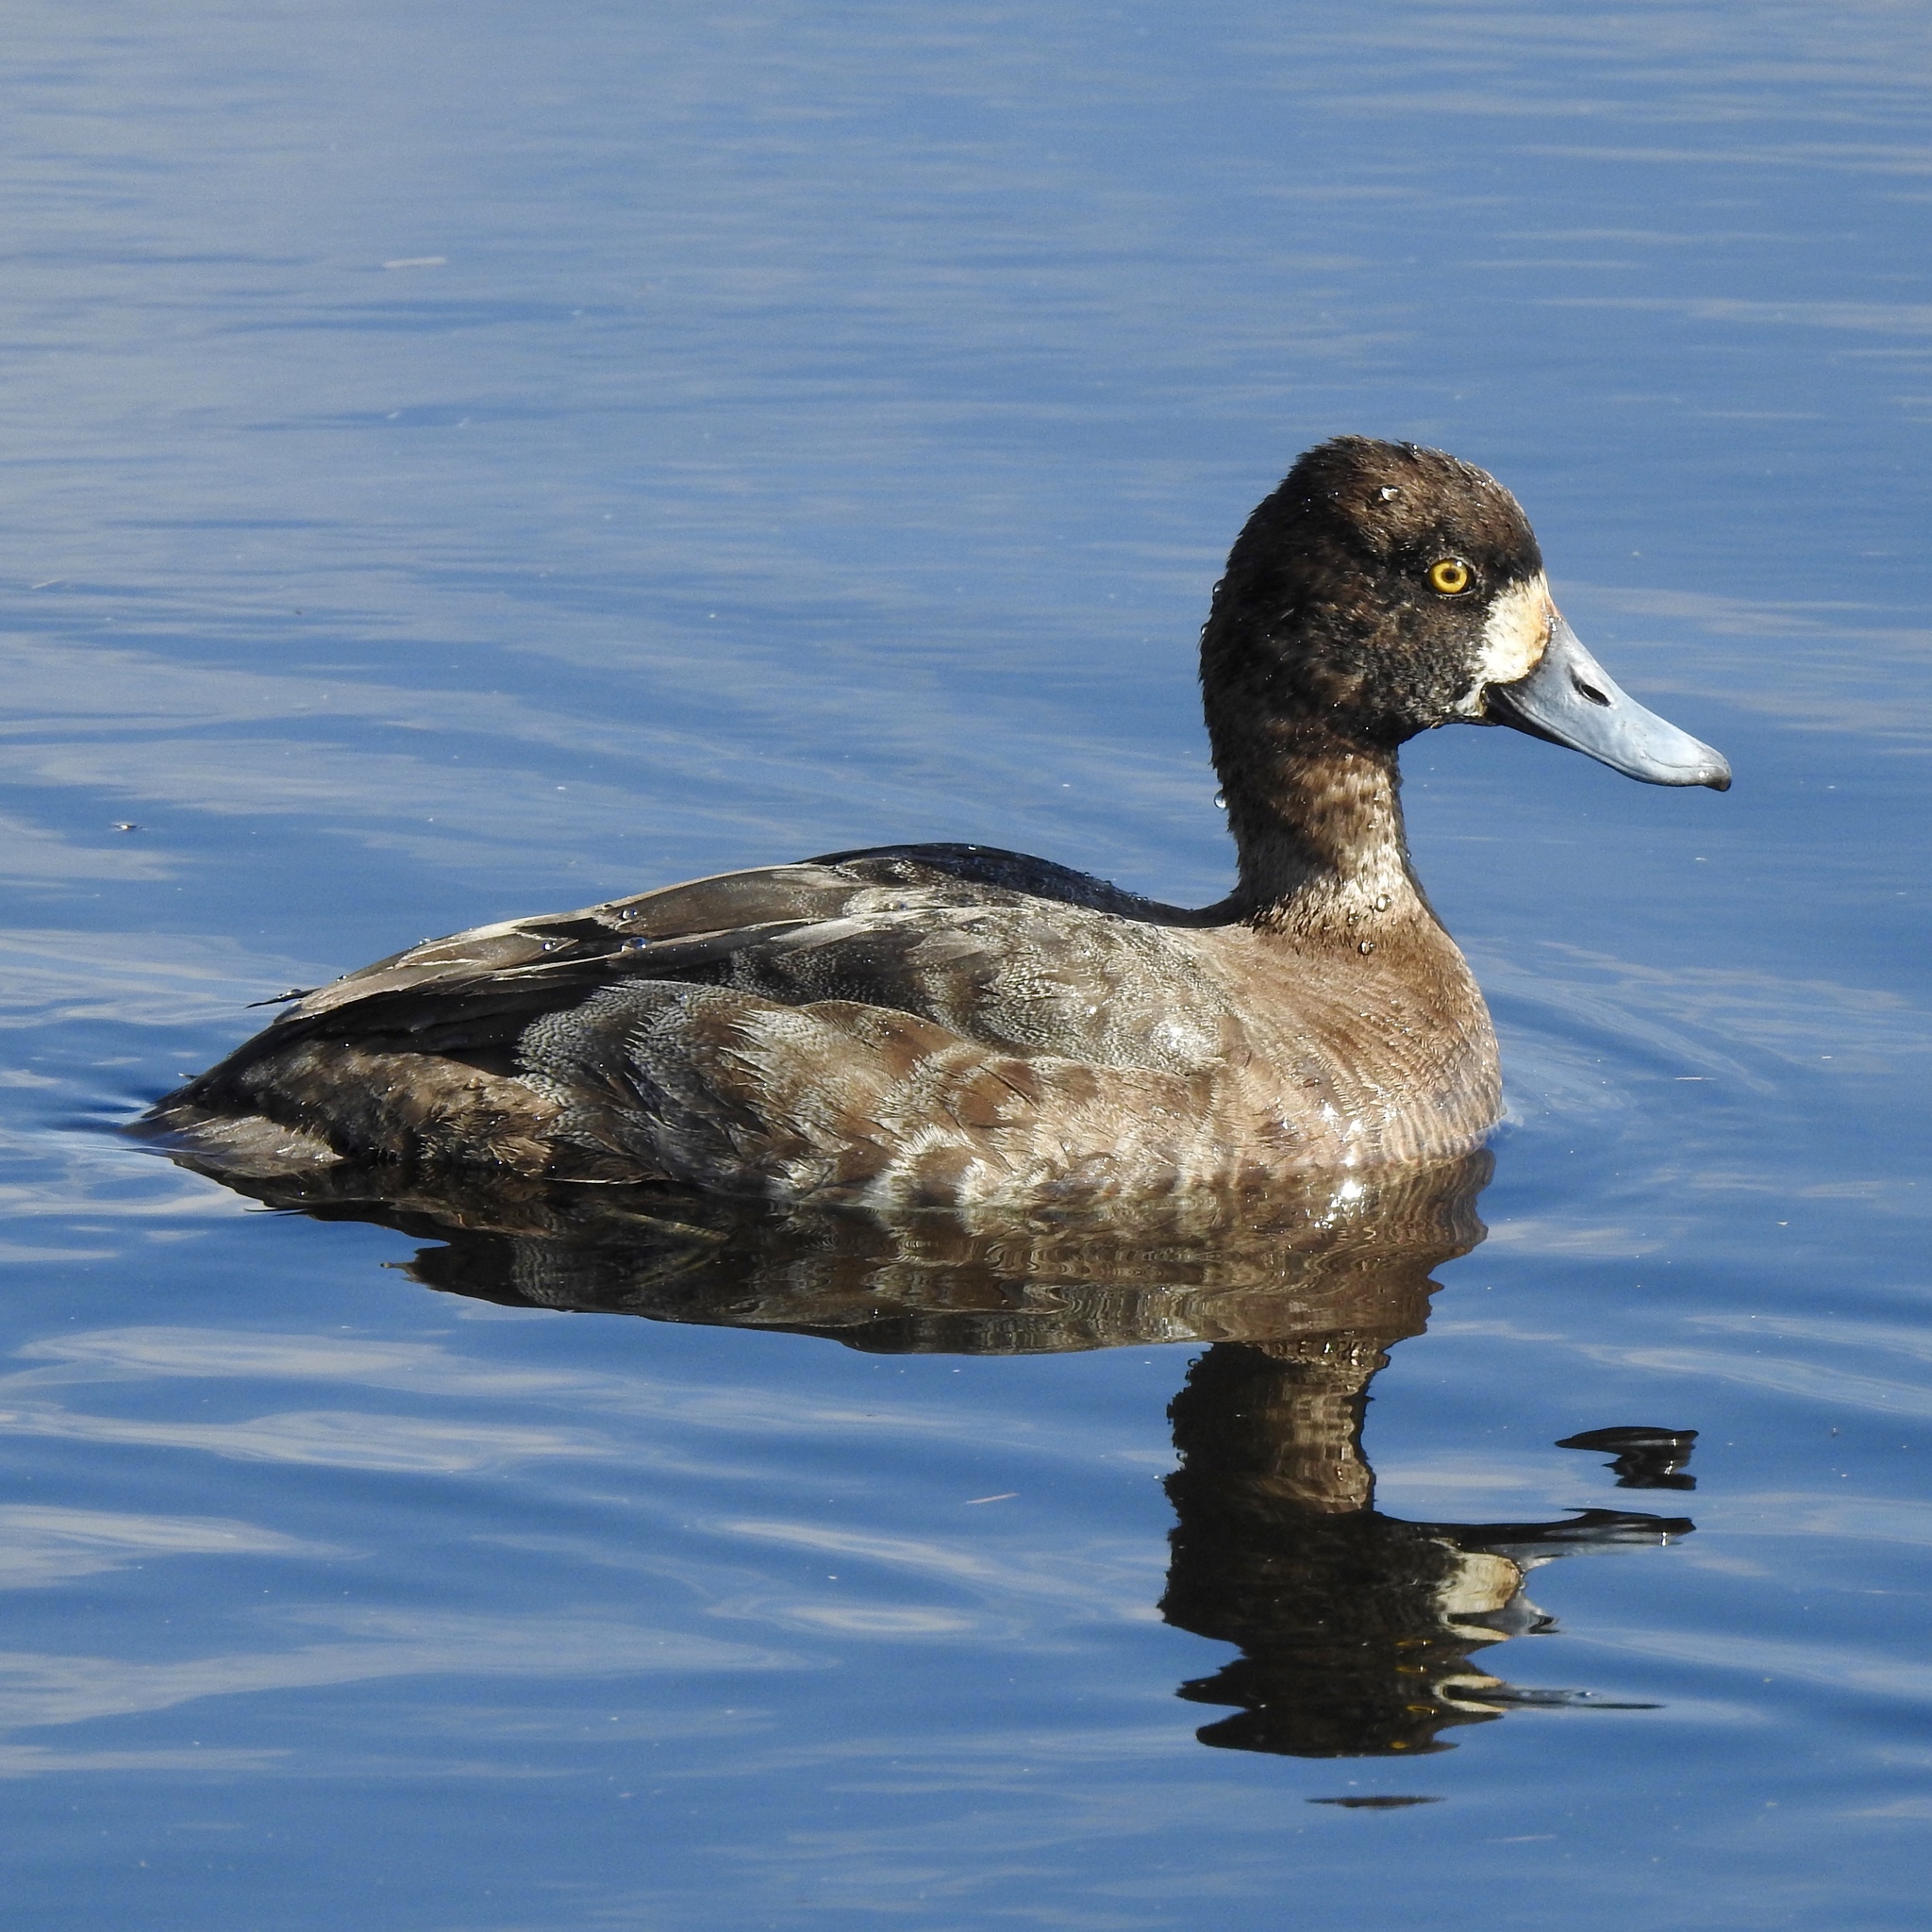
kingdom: Animalia
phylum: Chordata
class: Aves
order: Anseriformes
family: Anatidae
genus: Aythya
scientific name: Aythya affinis
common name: Lesser scaup
